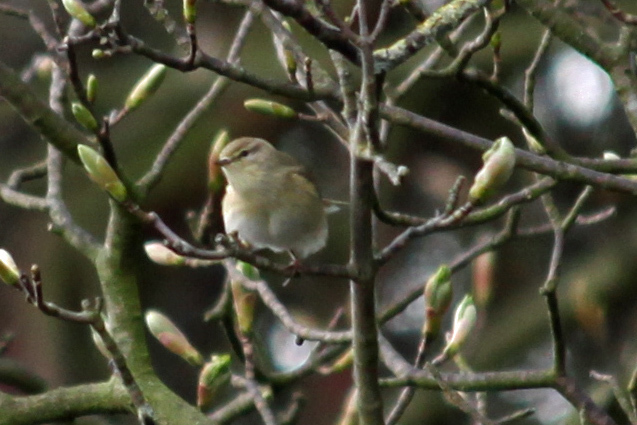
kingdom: Animalia
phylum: Chordata
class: Aves
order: Passeriformes
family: Phylloscopidae
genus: Phylloscopus
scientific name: Phylloscopus trochilus
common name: Willow warbler
